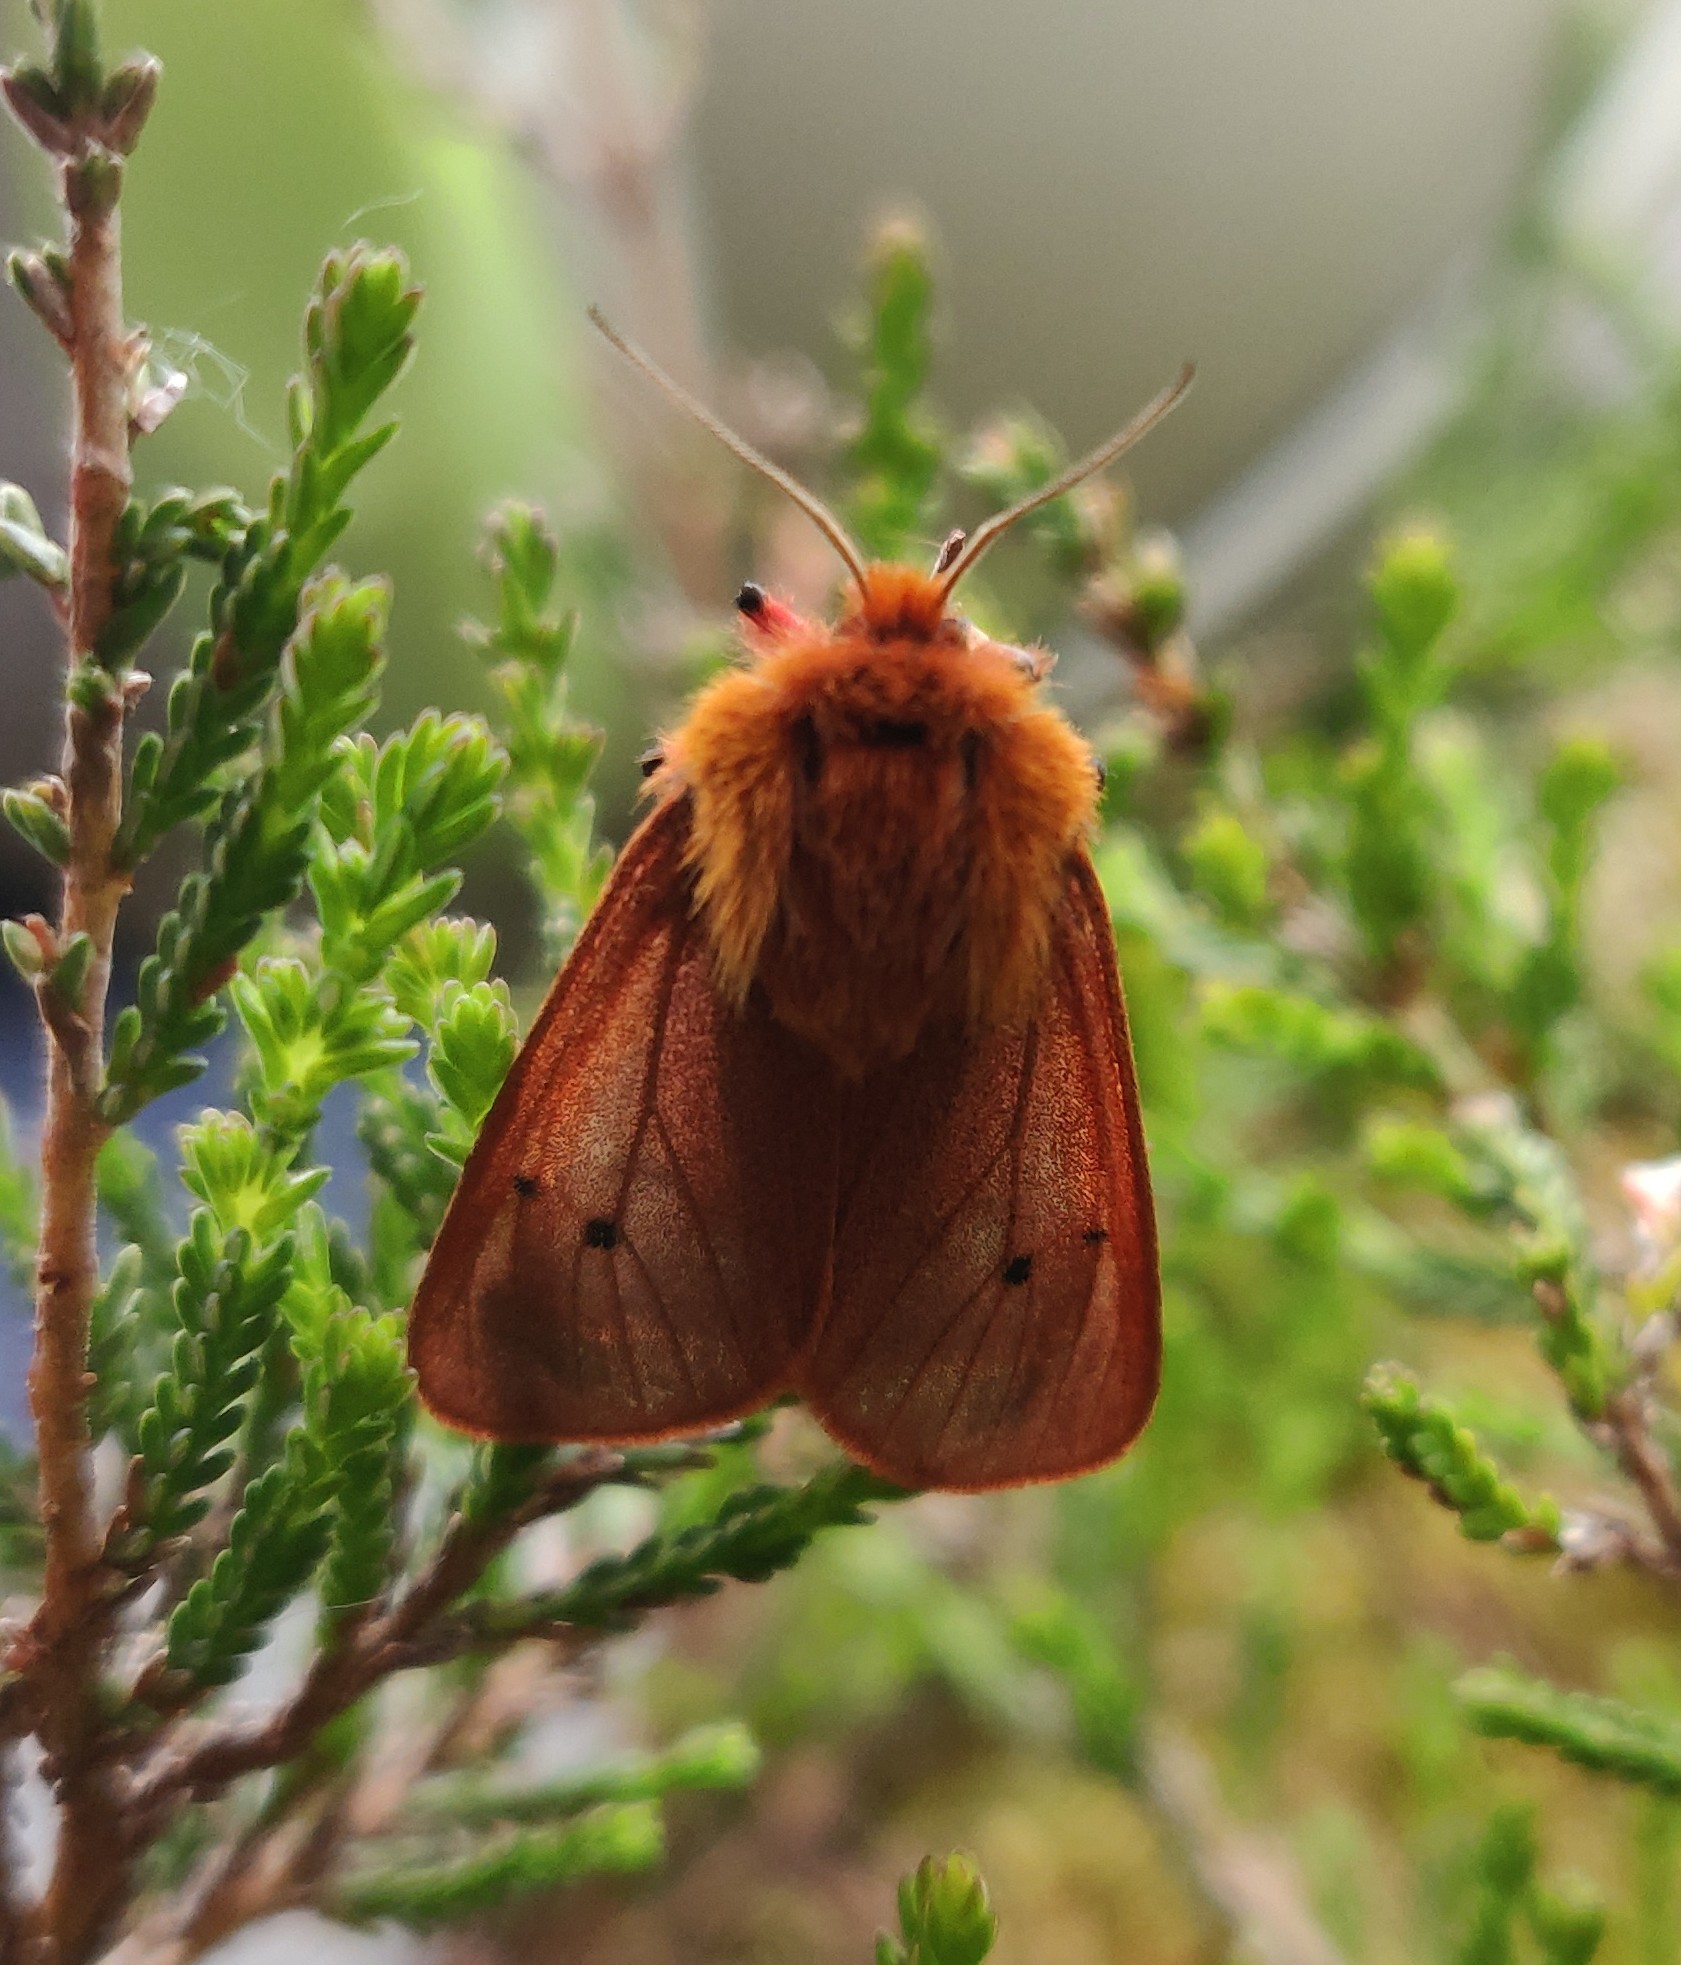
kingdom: Animalia
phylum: Arthropoda
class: Insecta
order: Lepidoptera
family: Erebidae
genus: Phragmatobia
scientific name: Phragmatobia fuliginosa
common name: Ruby tiger
